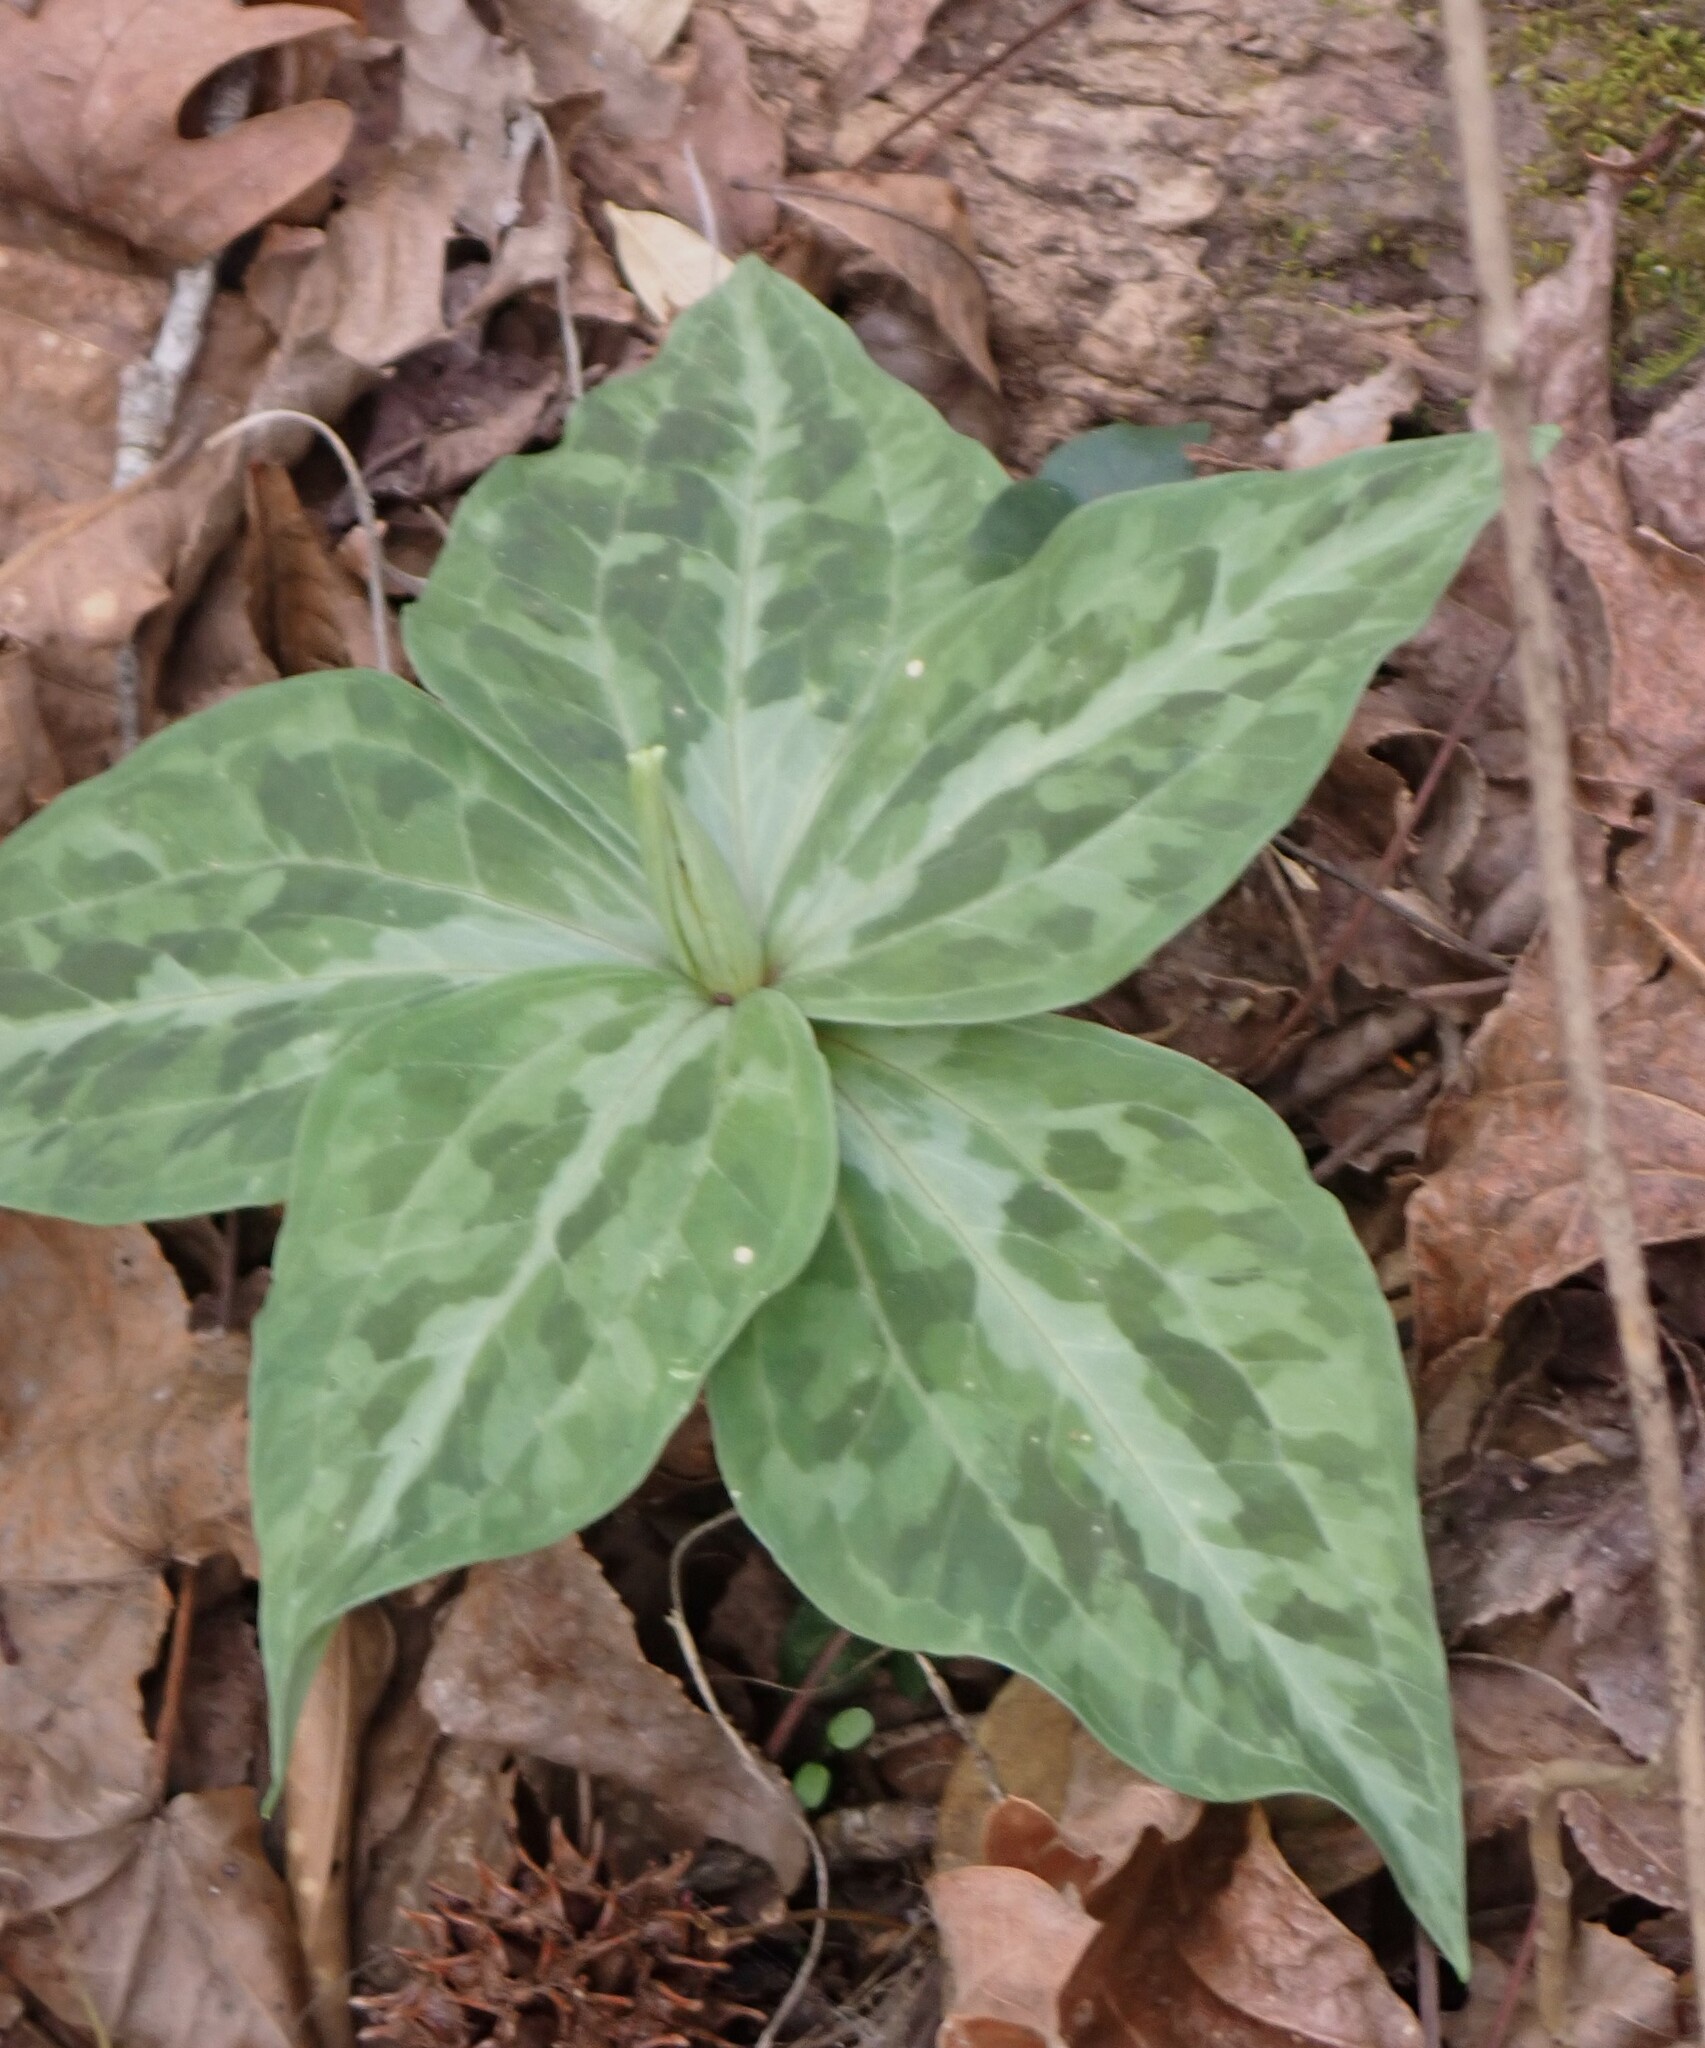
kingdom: Plantae
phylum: Tracheophyta
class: Liliopsida
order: Liliales
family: Melanthiaceae
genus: Trillium
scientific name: Trillium underwoodii
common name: Longbract wakerobin
